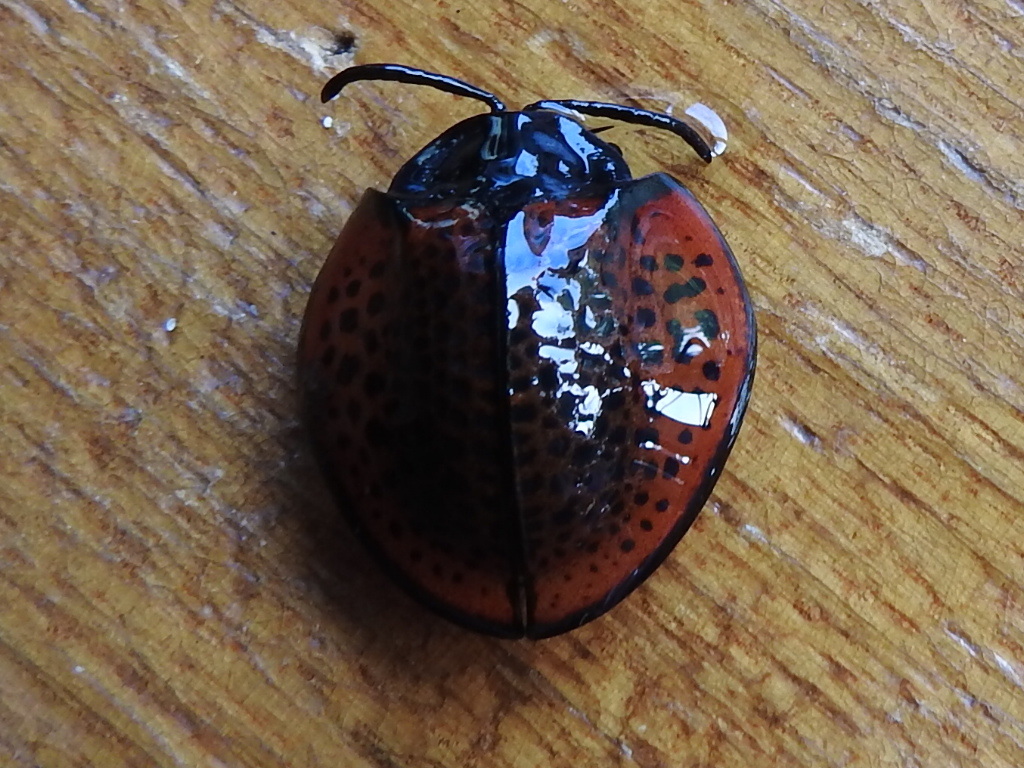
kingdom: Animalia
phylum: Arthropoda
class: Insecta
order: Coleoptera
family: Chrysomelidae
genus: Eugenysa
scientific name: Eugenysa columbiana
